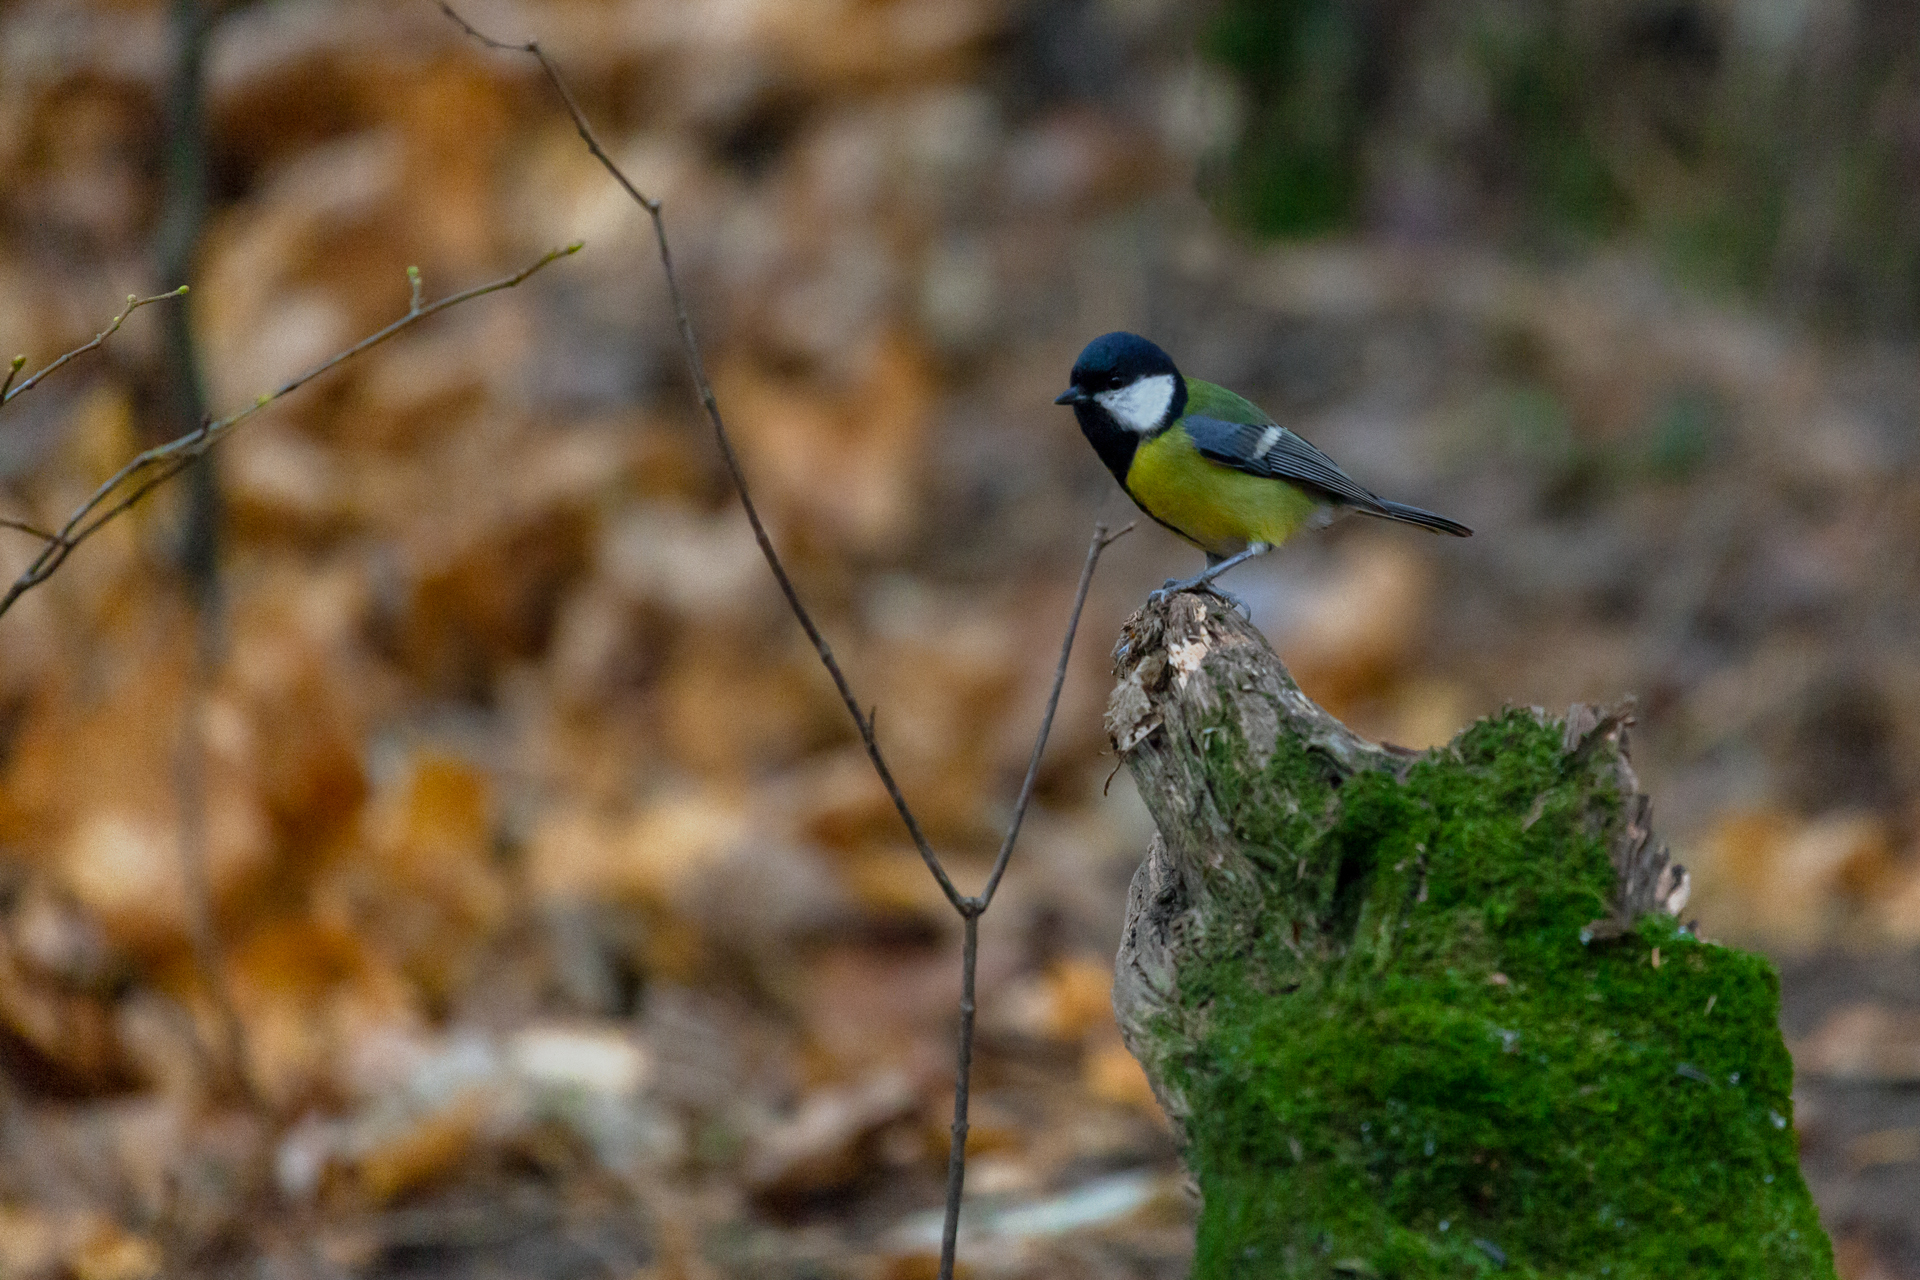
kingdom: Animalia
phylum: Chordata
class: Aves
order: Passeriformes
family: Paridae
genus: Parus
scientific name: Parus major
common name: Great tit
